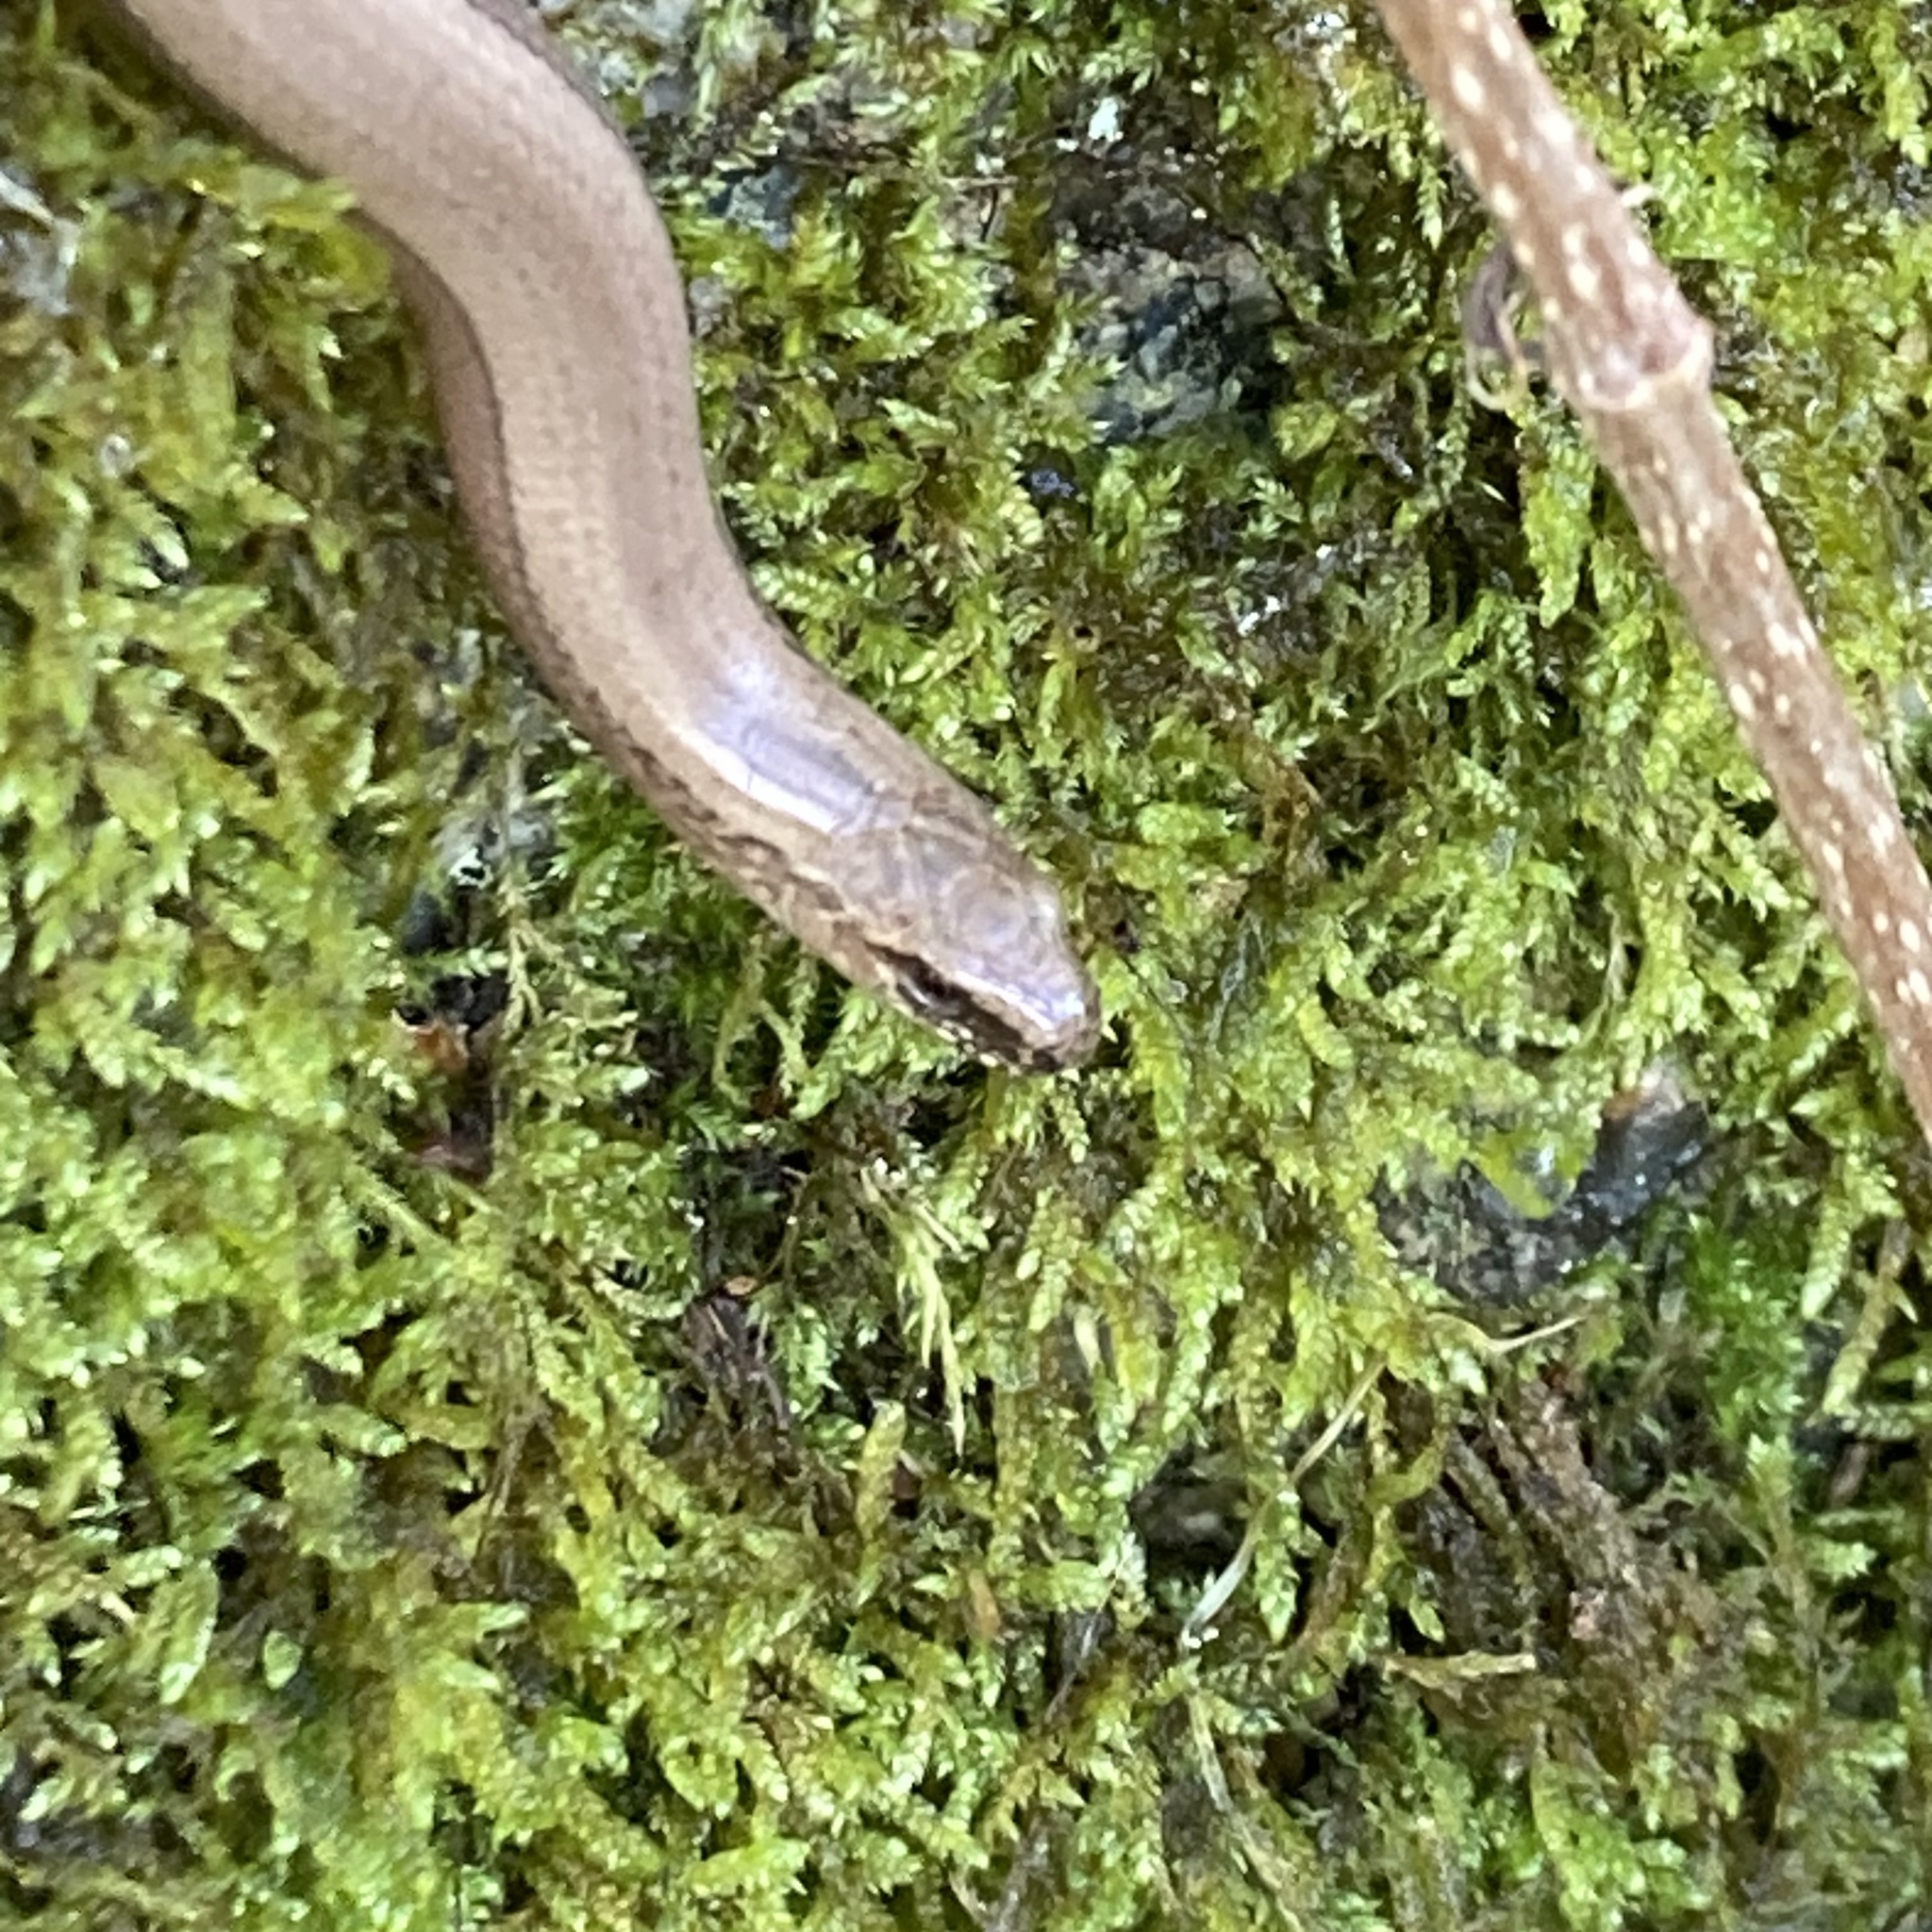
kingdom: Animalia
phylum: Chordata
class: Squamata
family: Anguidae
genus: Anguis
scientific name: Anguis fragilis
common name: Slow worm
